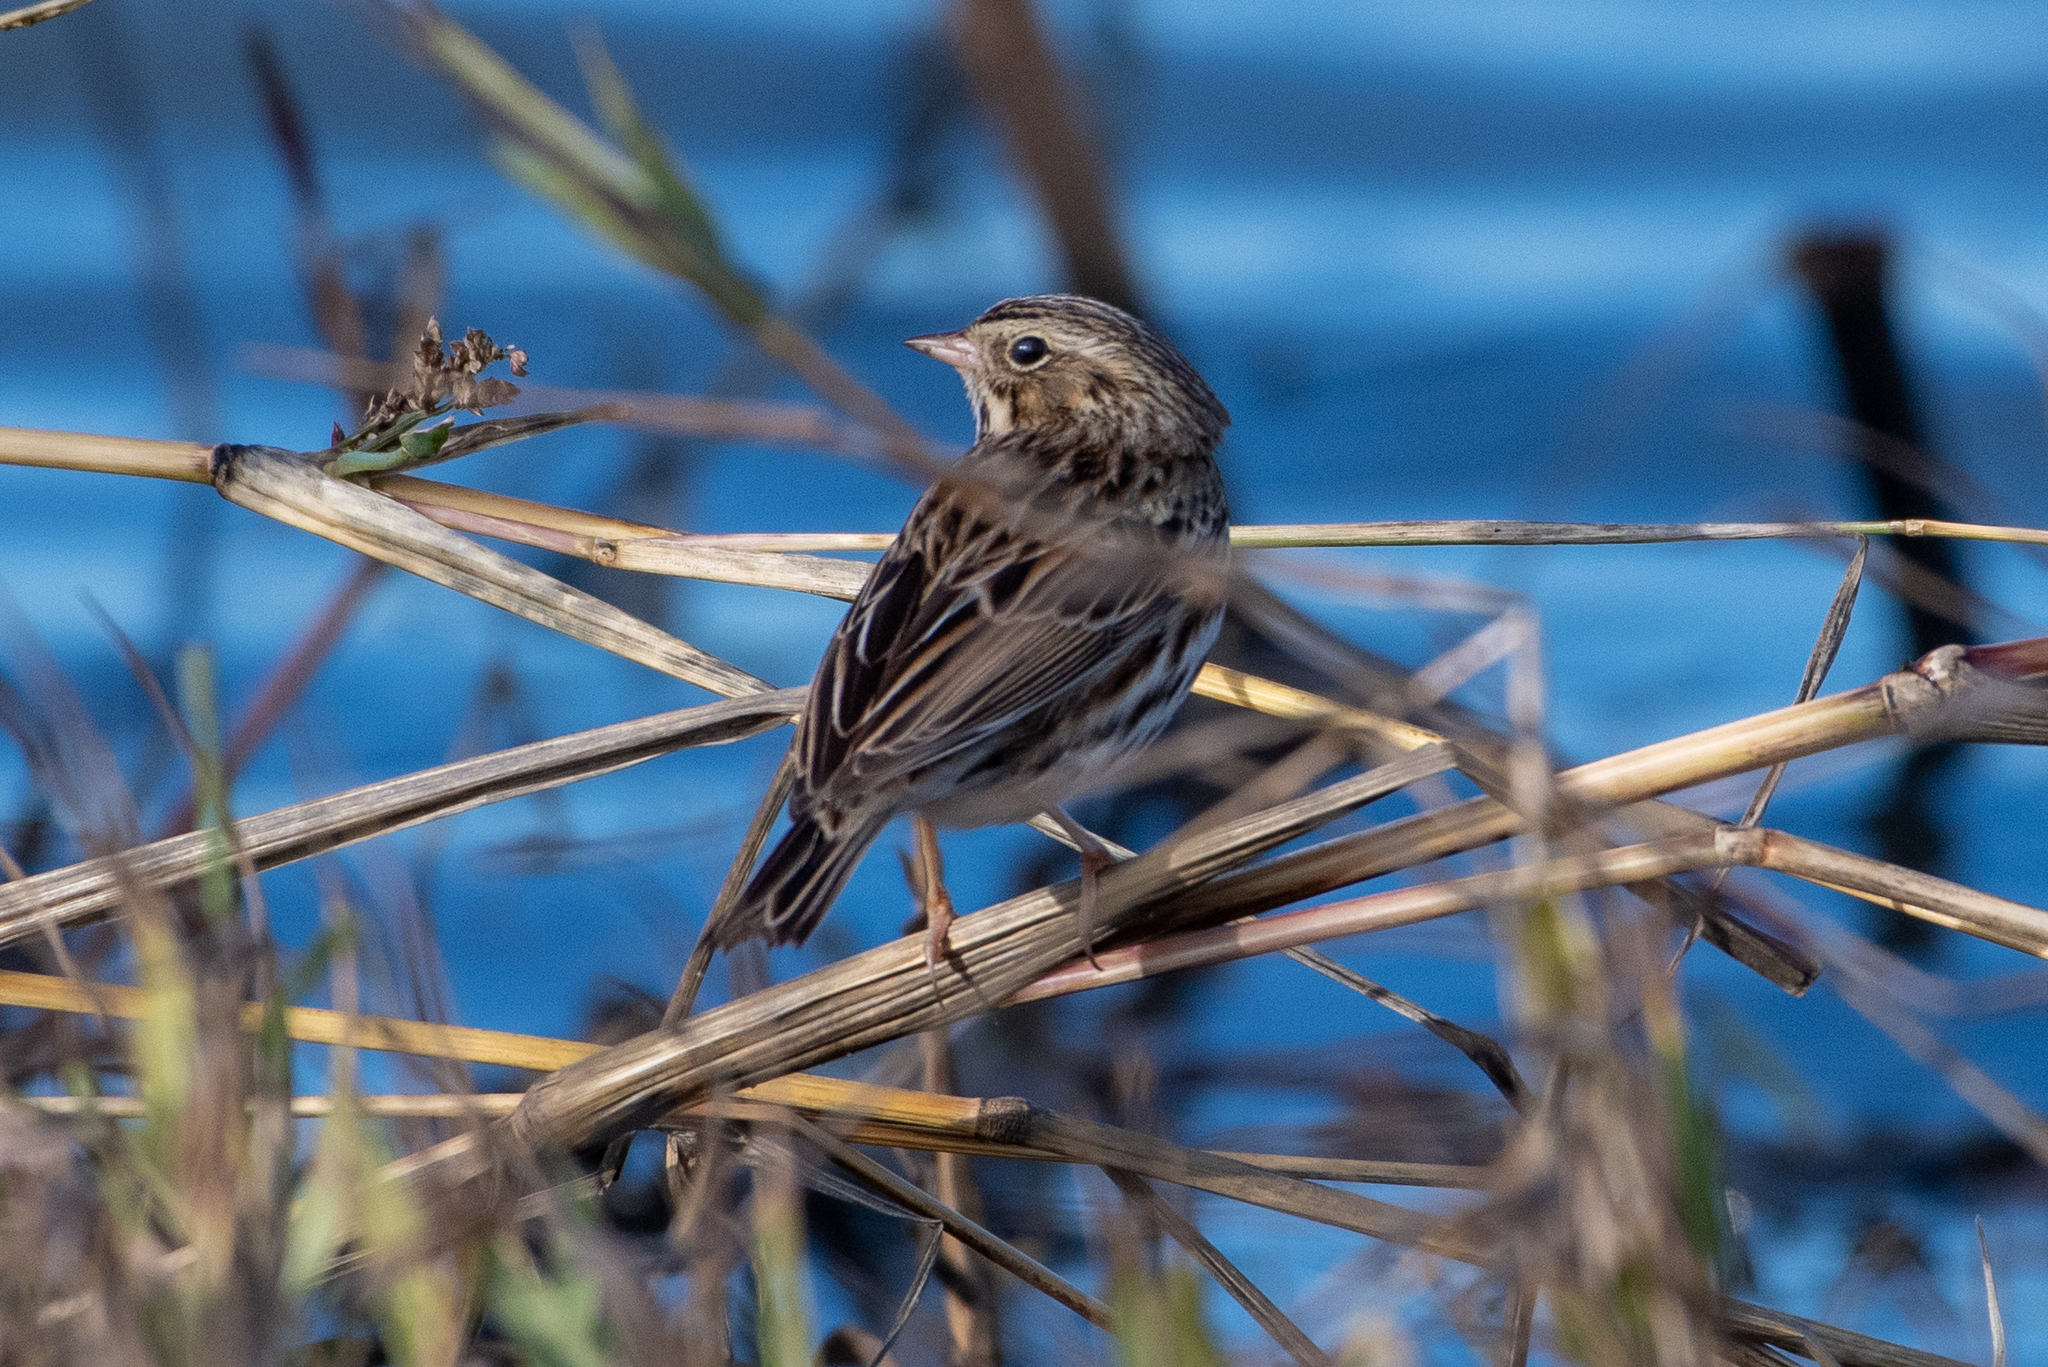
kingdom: Animalia
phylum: Chordata
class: Aves
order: Passeriformes
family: Passerellidae
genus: Passerculus
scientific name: Passerculus sandwichensis
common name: Savannah sparrow
